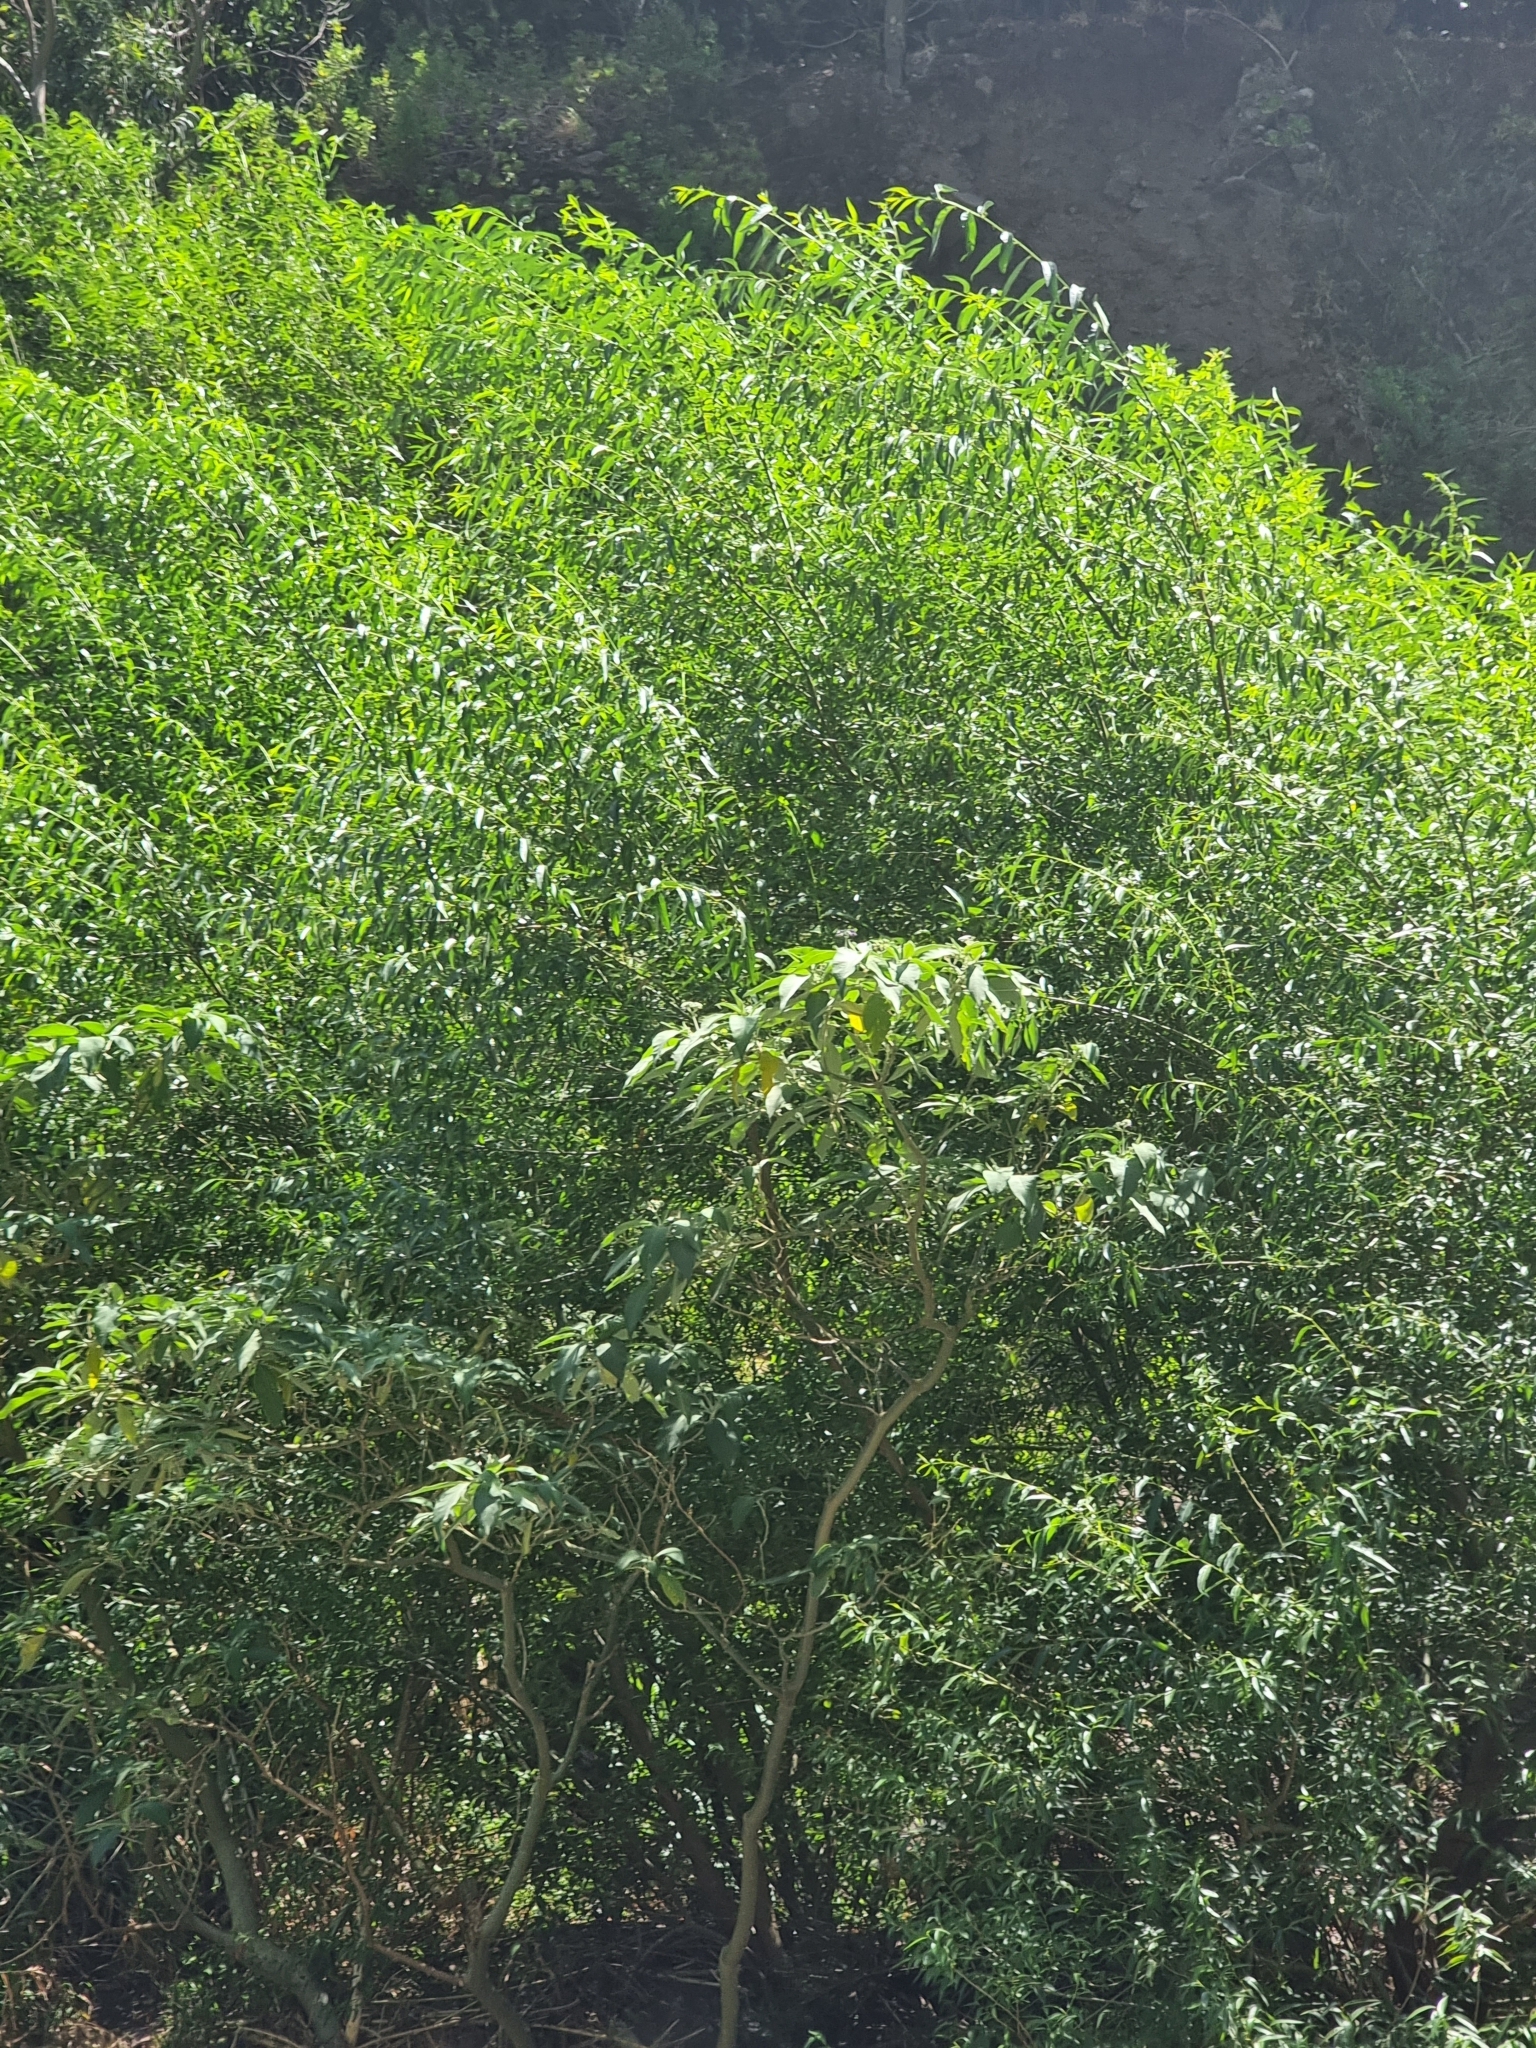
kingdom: Plantae
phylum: Tracheophyta
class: Magnoliopsida
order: Solanales
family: Solanaceae
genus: Solanum
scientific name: Solanum mauritianum
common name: Earleaf nightshade
